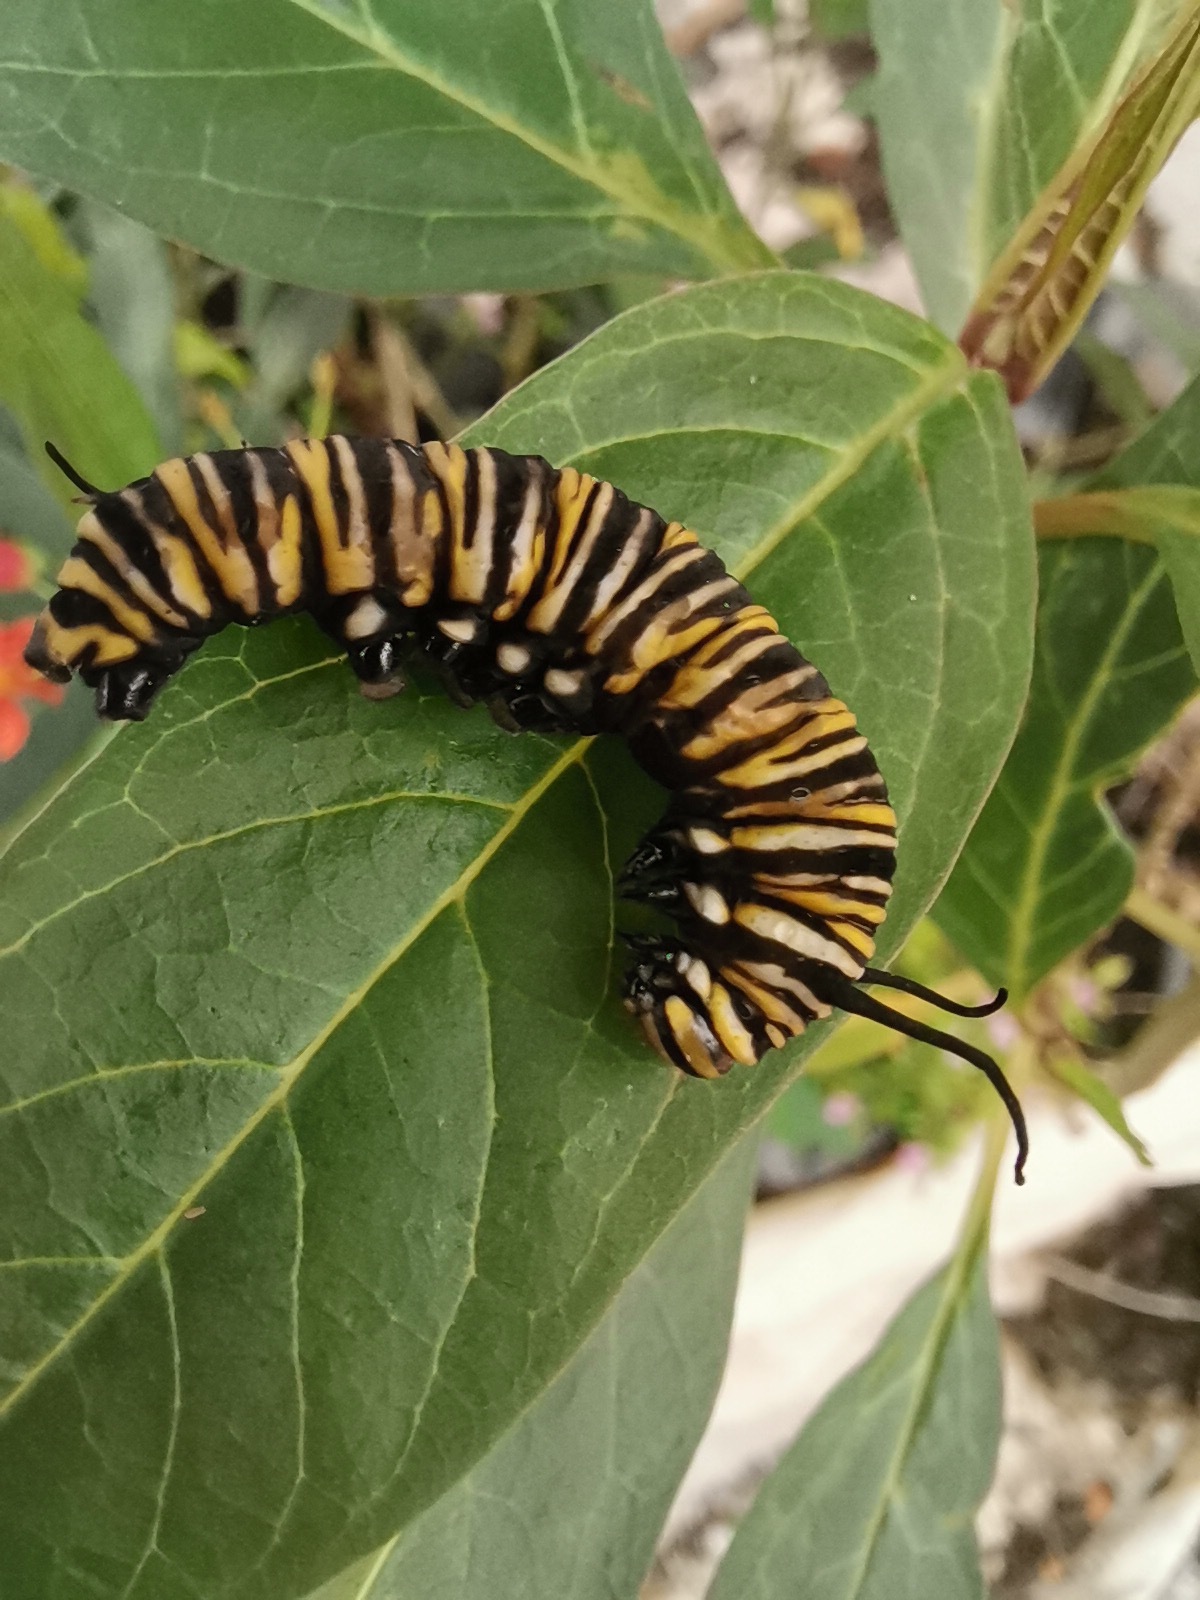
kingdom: Animalia
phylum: Arthropoda
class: Insecta
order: Lepidoptera
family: Nymphalidae
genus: Danaus
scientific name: Danaus plexippus
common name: Monarch
